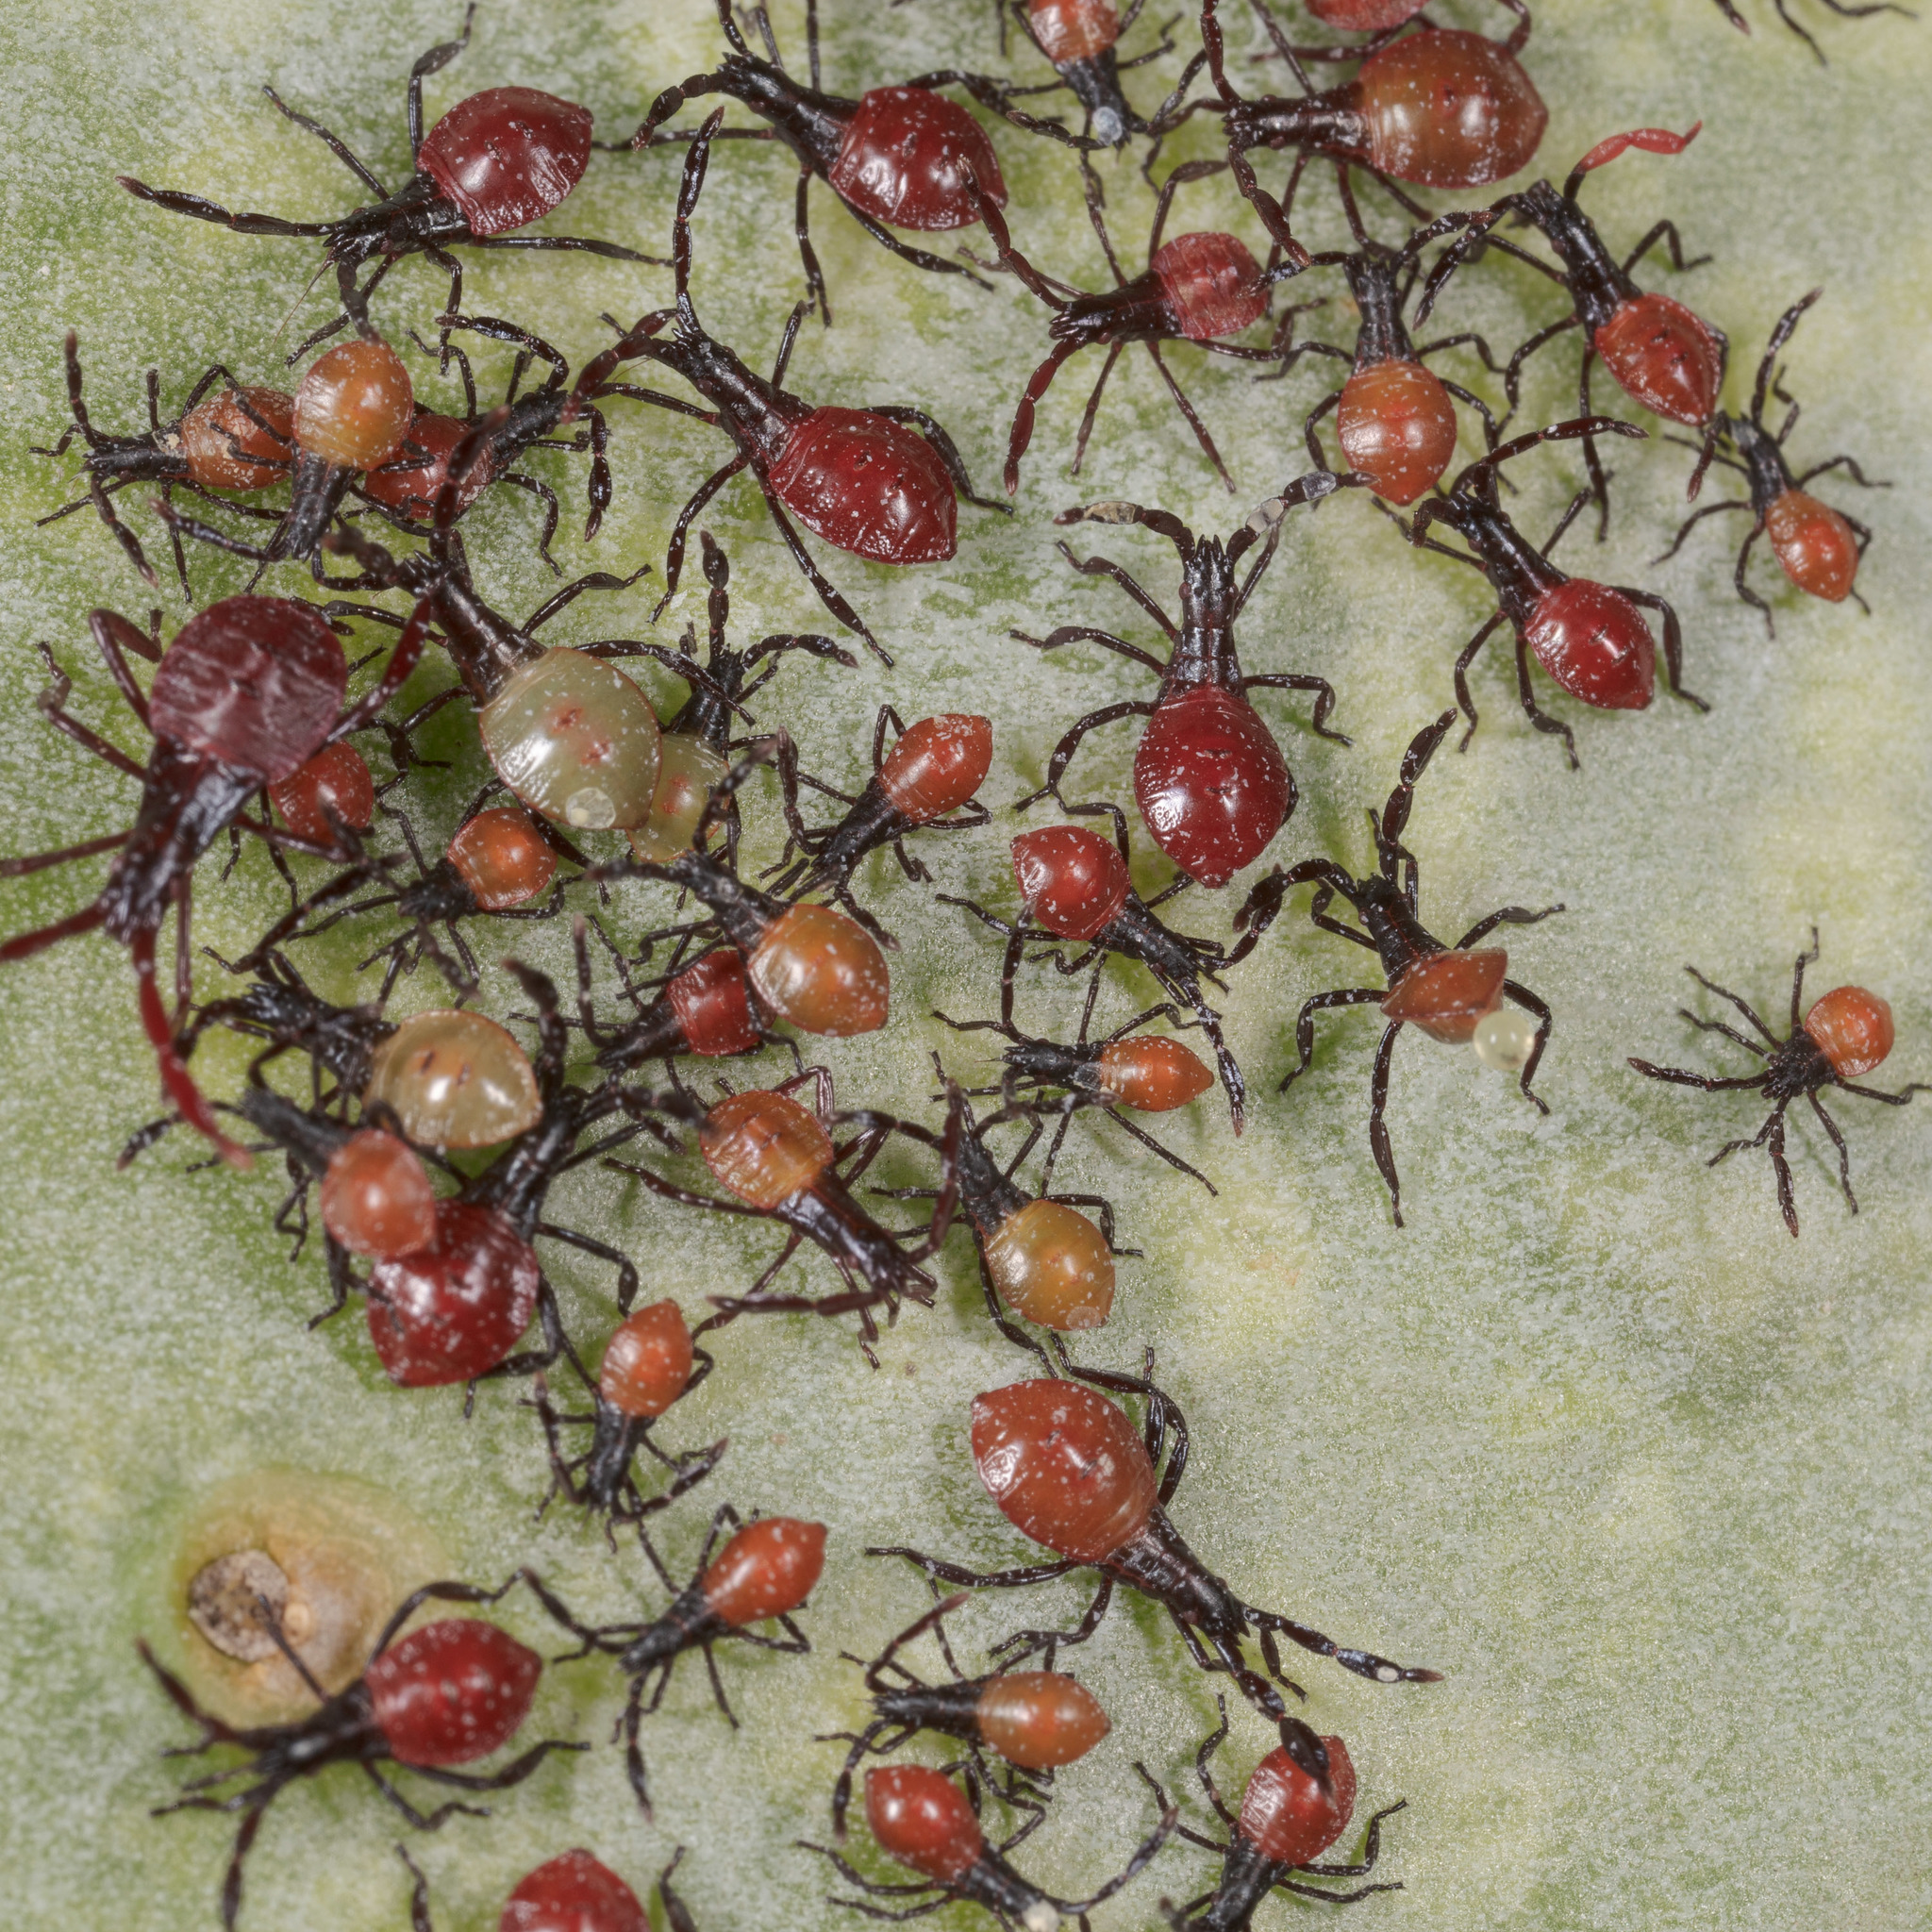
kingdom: Animalia
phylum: Arthropoda
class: Insecta
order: Hemiptera
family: Coreidae
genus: Chelinidea
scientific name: Chelinidea vittiger
